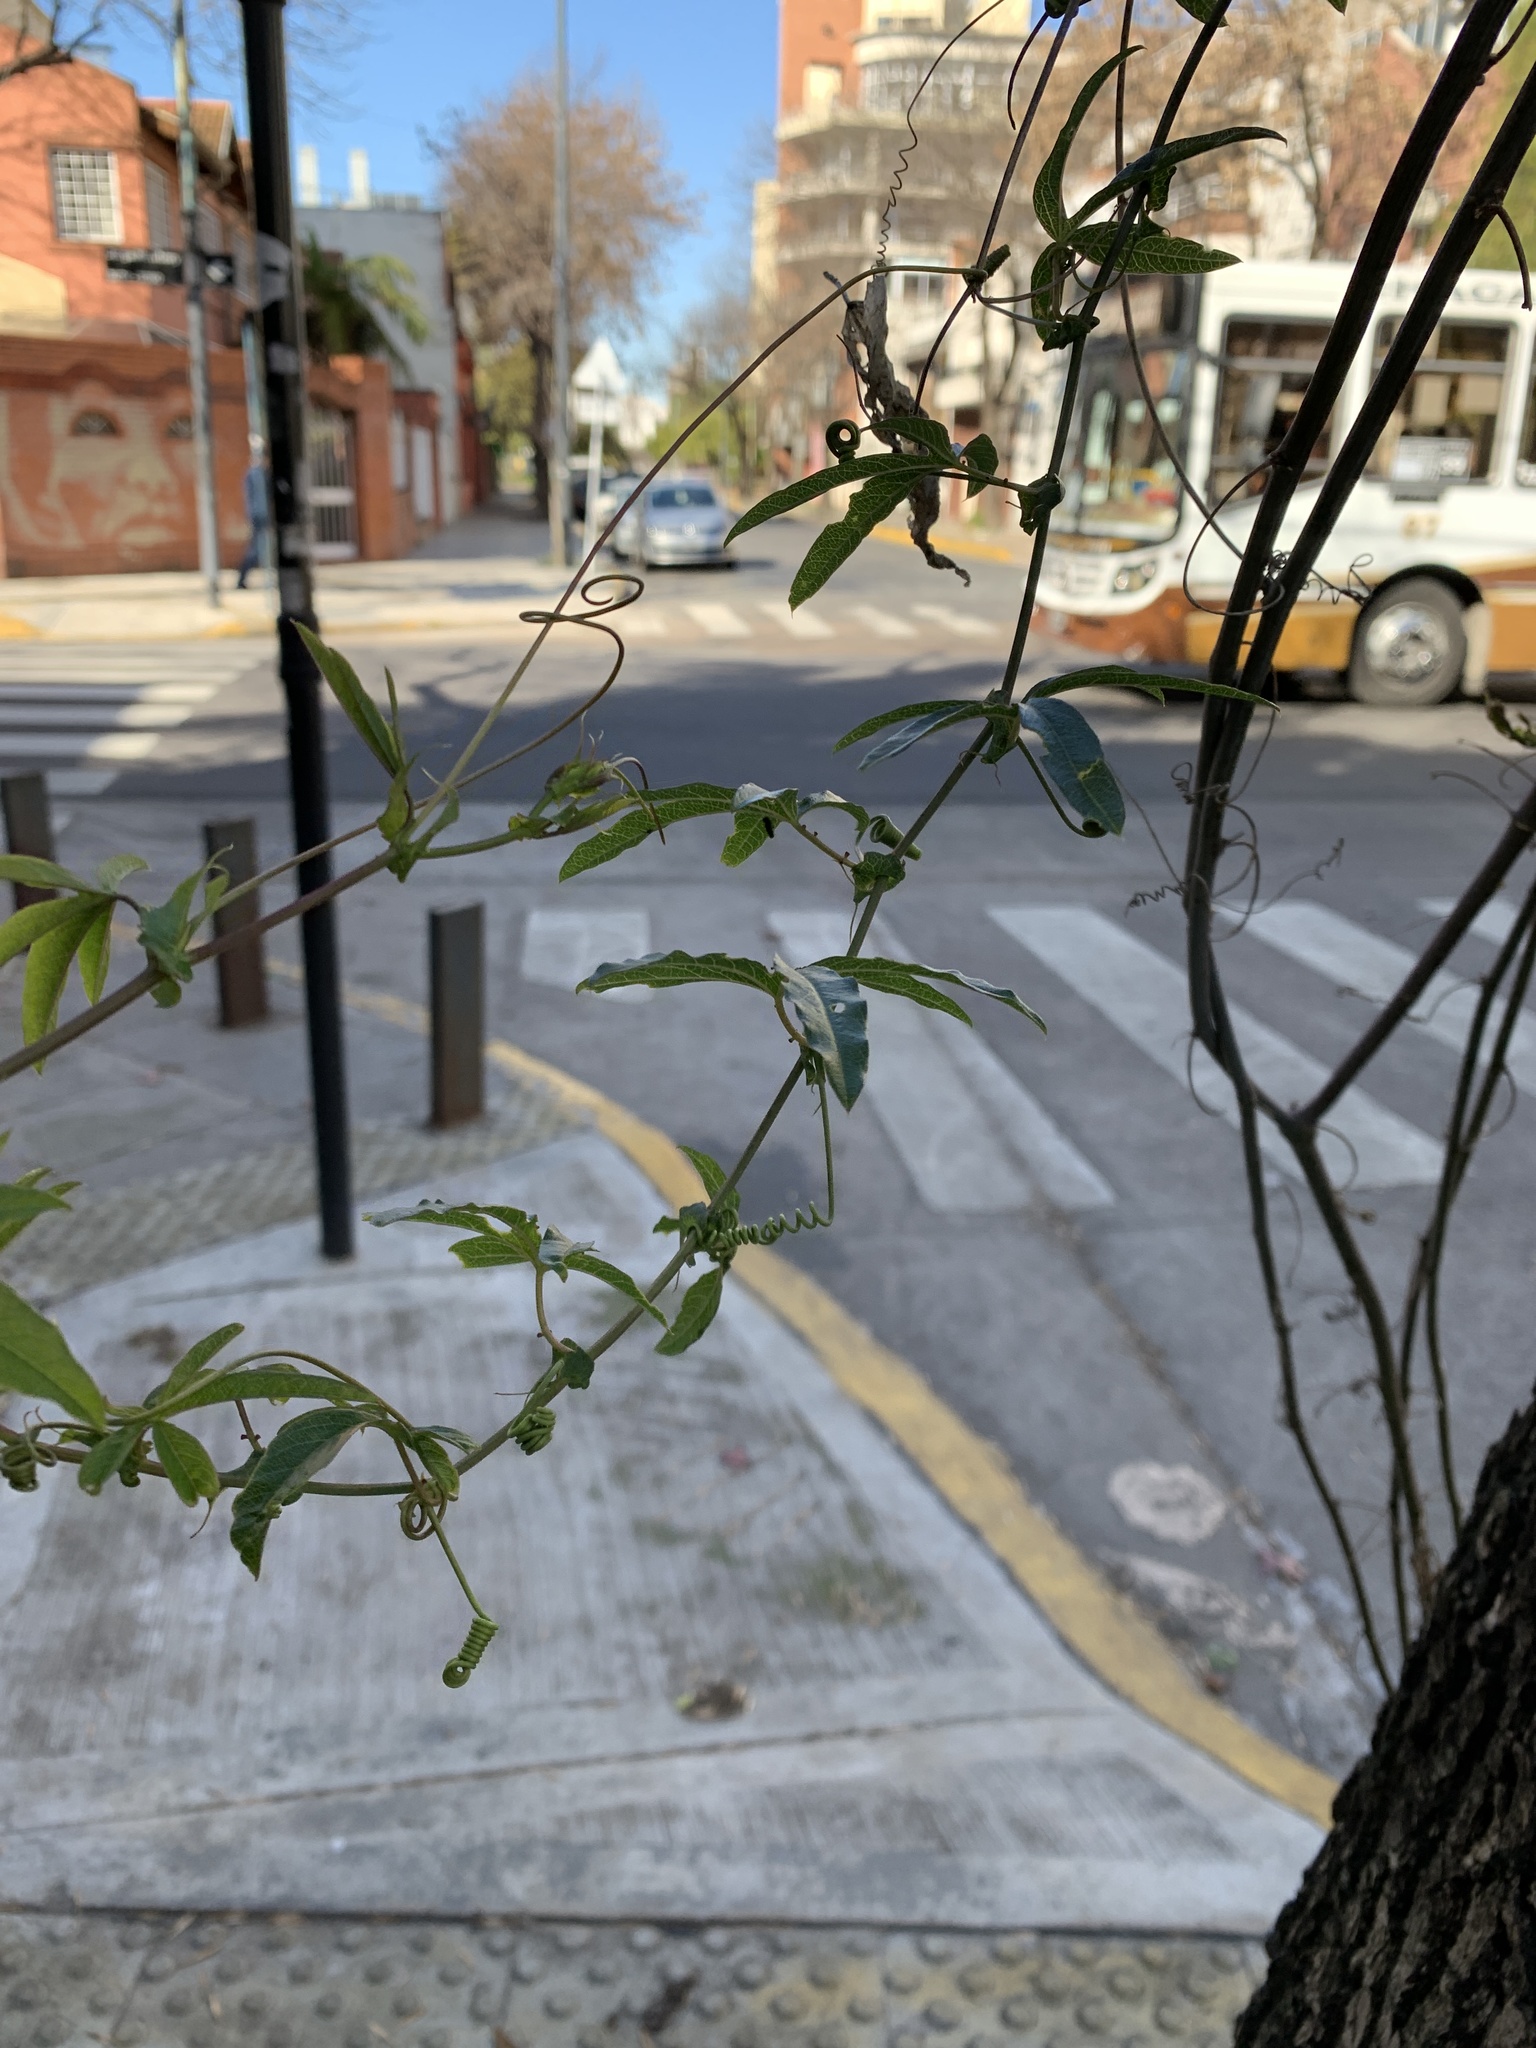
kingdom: Plantae
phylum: Tracheophyta
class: Magnoliopsida
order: Malpighiales
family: Passifloraceae
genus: Passiflora
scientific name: Passiflora caerulea
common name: Blue passionflower
